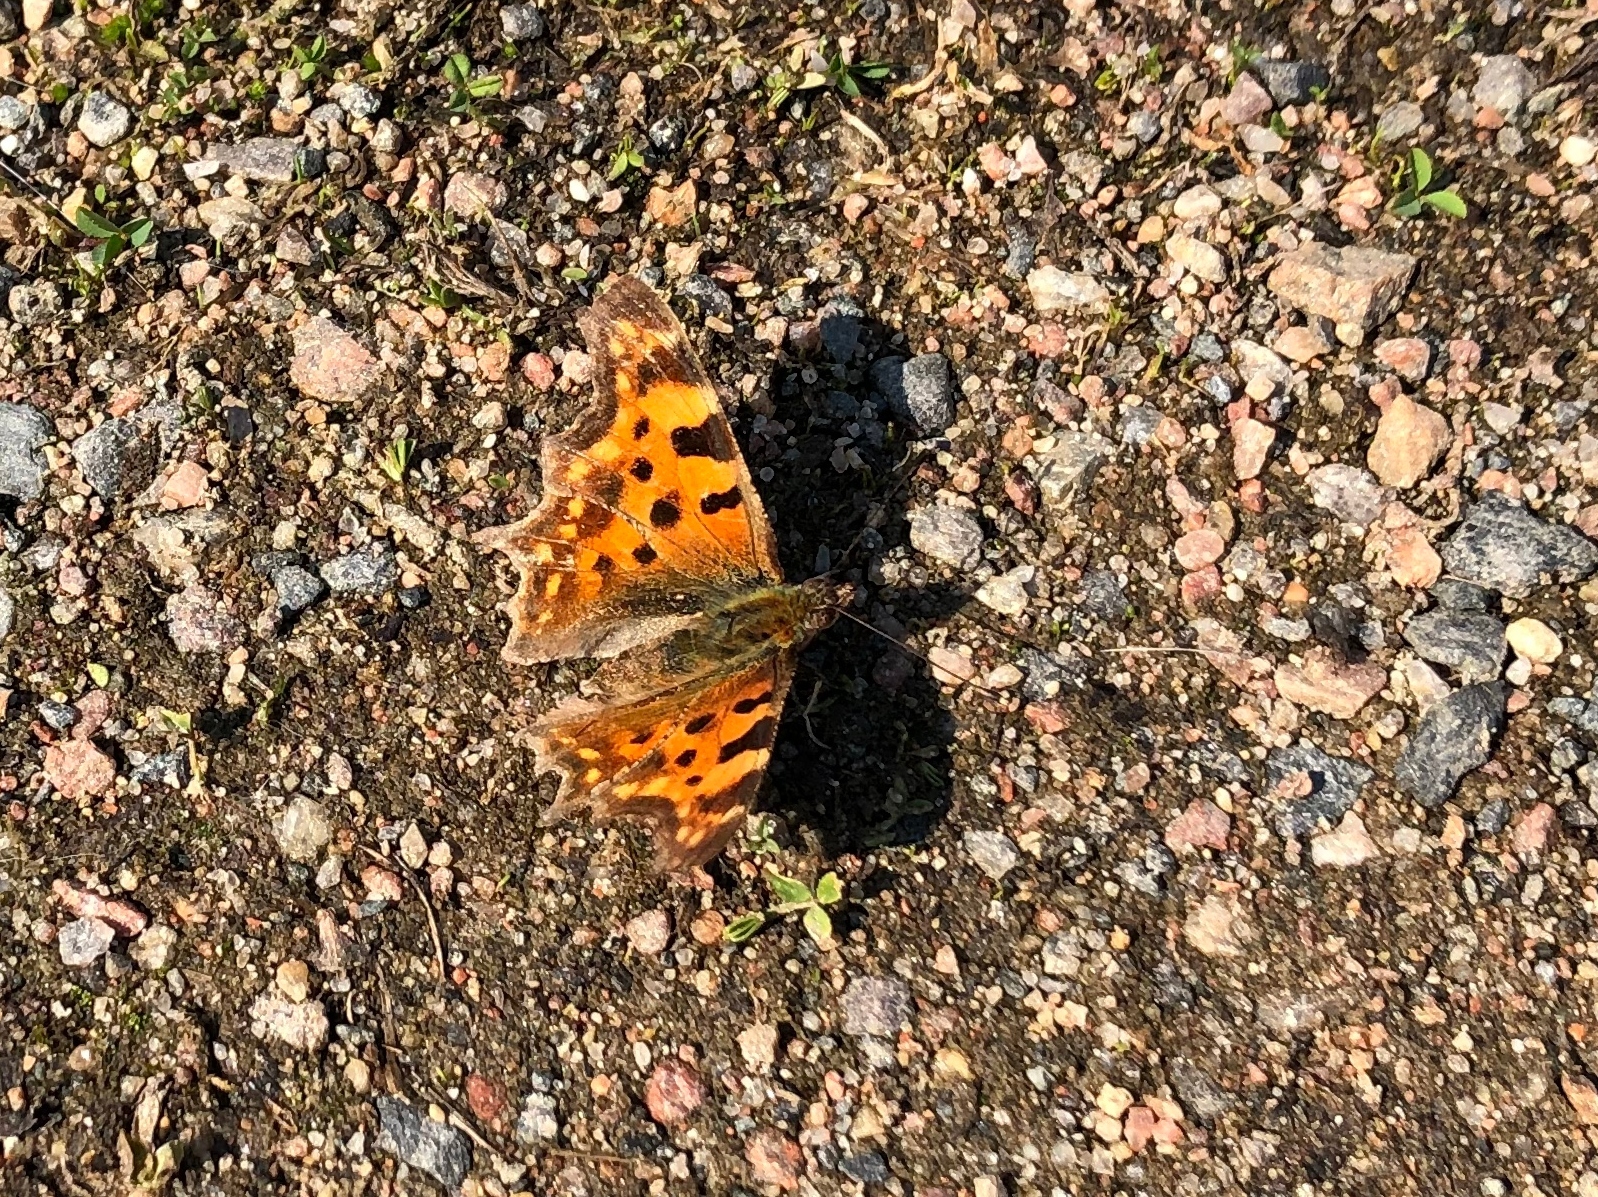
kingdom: Animalia
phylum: Arthropoda
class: Insecta
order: Lepidoptera
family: Nymphalidae
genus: Polygonia
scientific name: Polygonia c-album
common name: Comma
